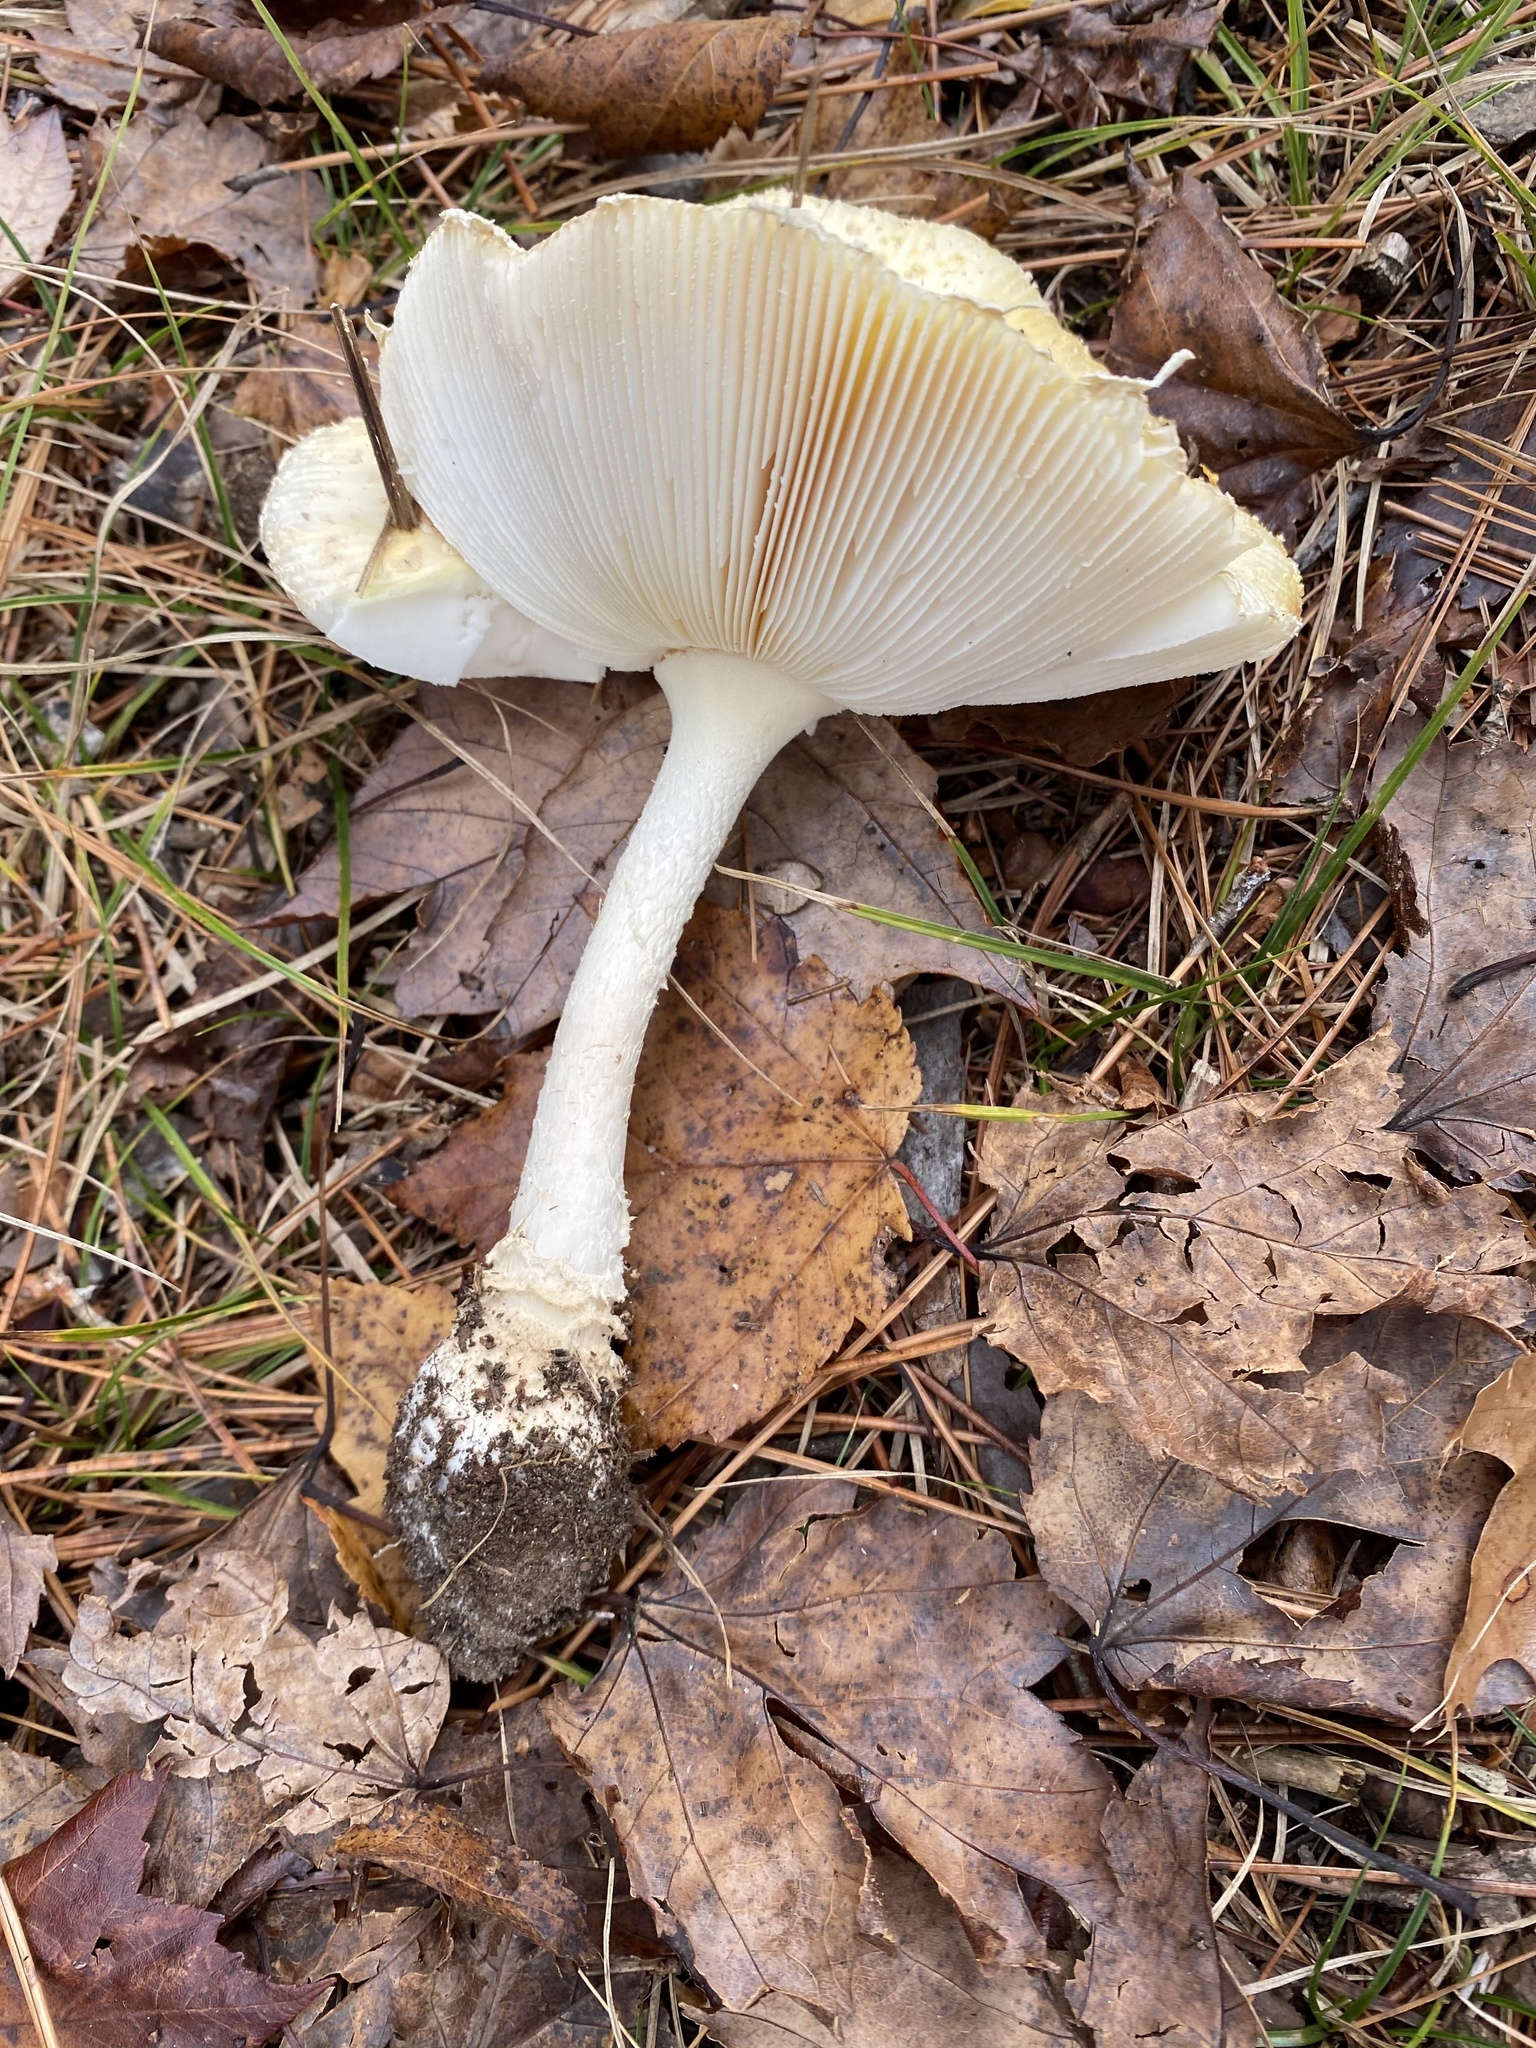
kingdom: Fungi
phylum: Basidiomycota
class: Agaricomycetes
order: Agaricales
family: Amanitaceae
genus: Amanita
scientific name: Amanita muscaria
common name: Fly agaric
